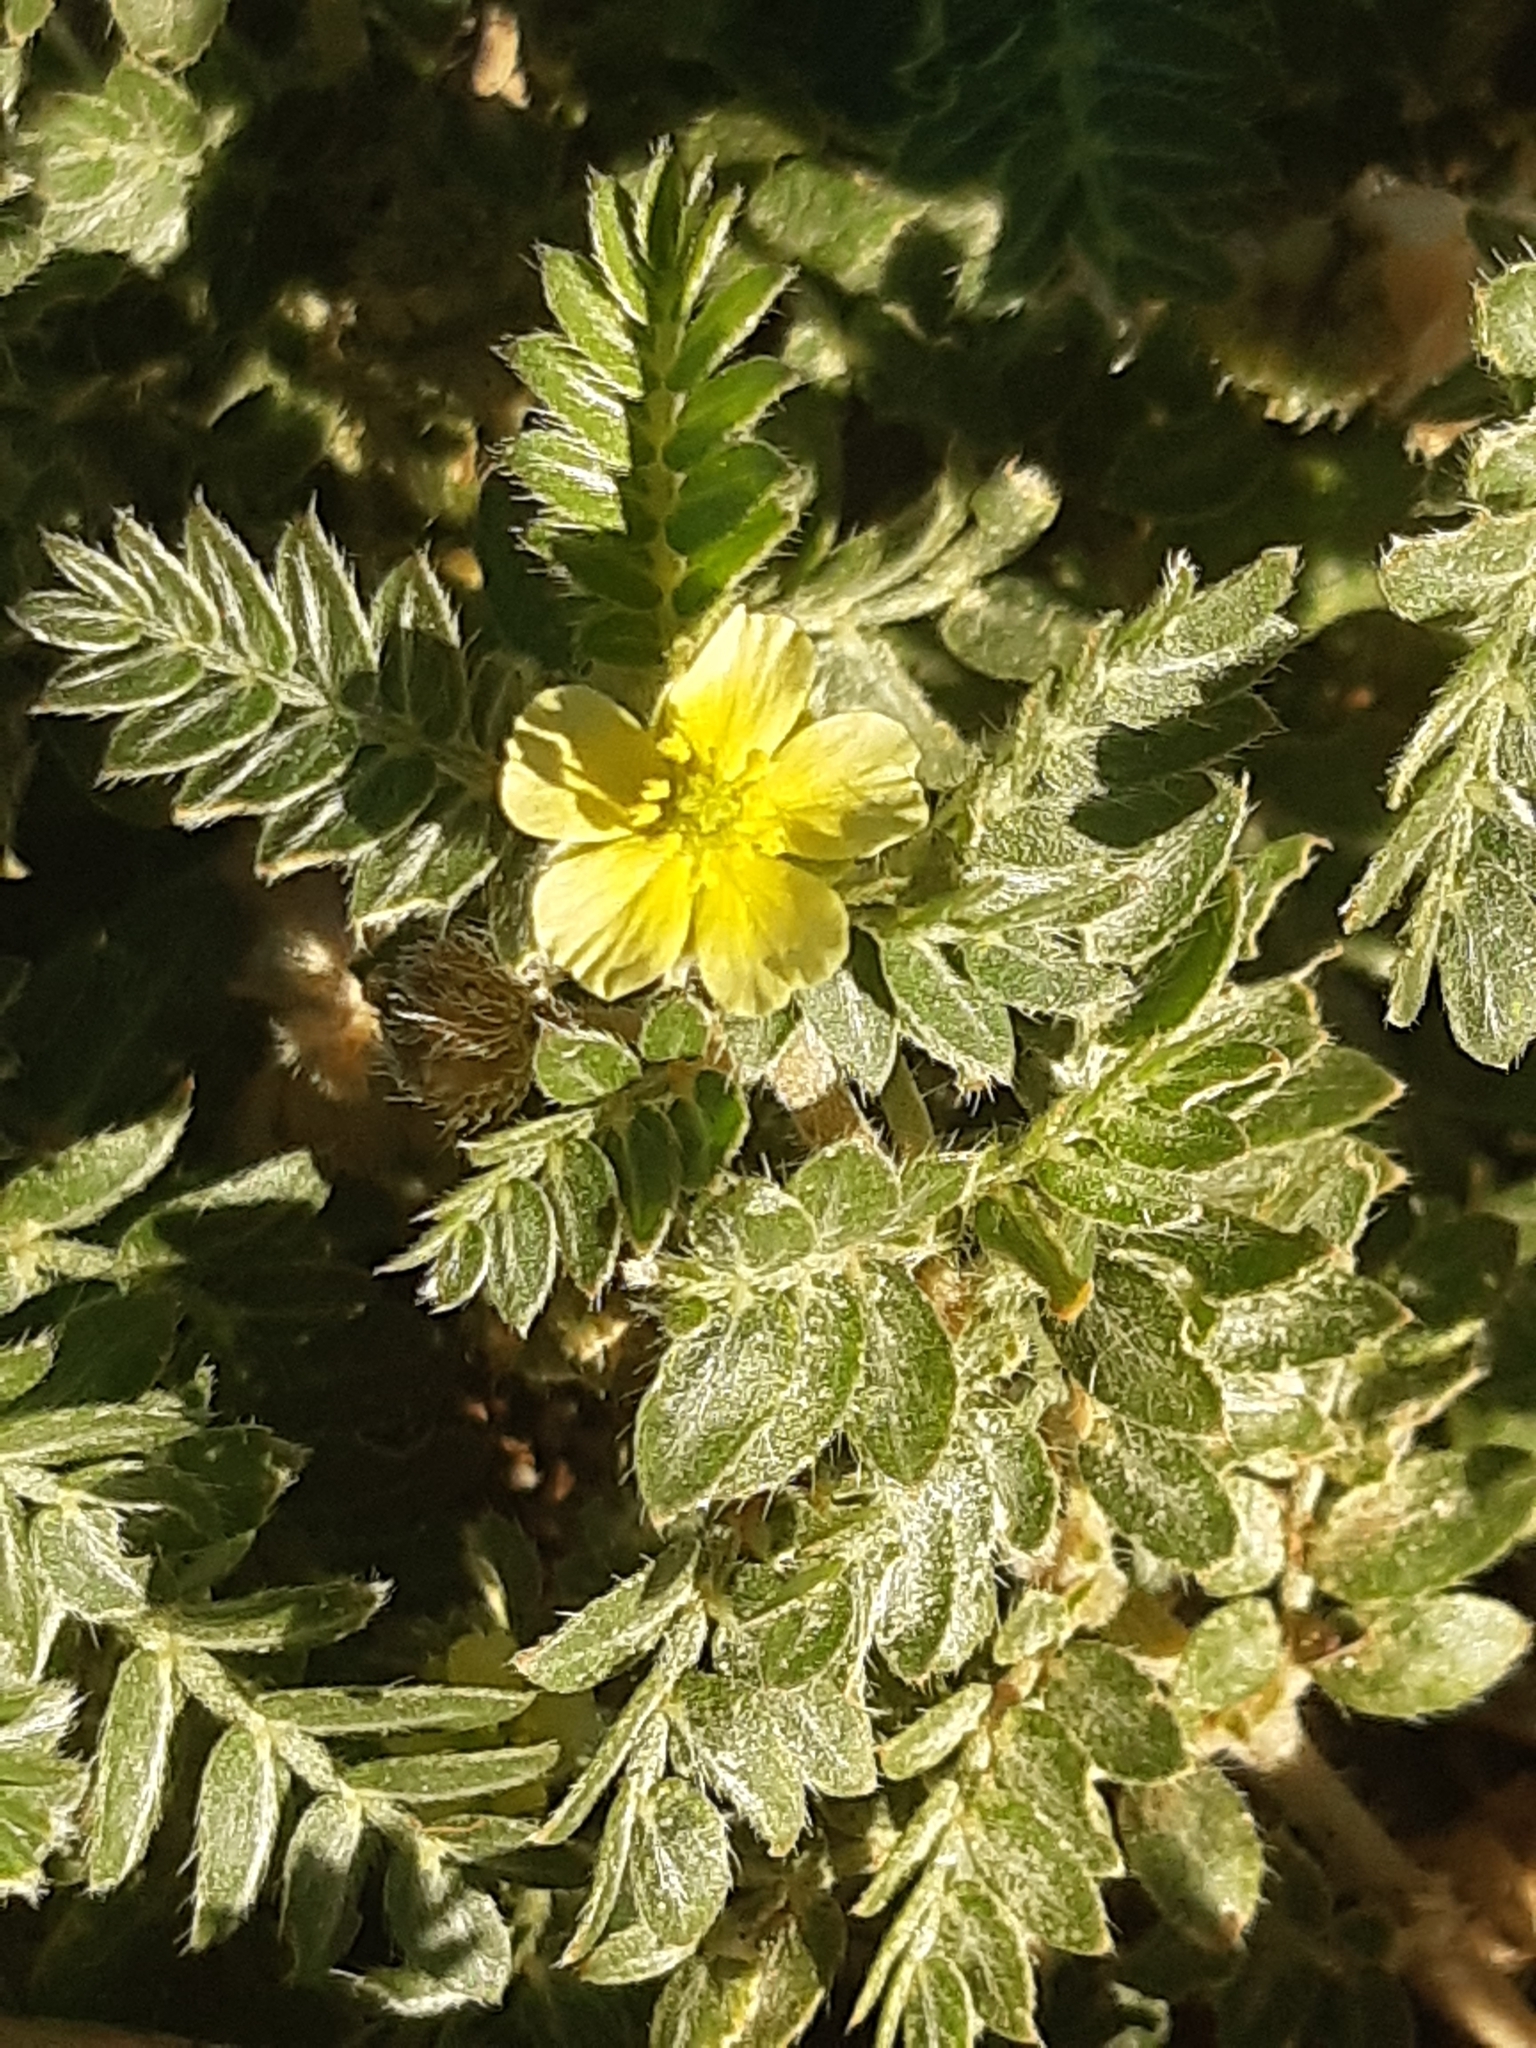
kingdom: Plantae
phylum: Tracheophyta
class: Magnoliopsida
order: Zygophyllales
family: Zygophyllaceae
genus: Tribulus
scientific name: Tribulus terrestris
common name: Puncturevine
